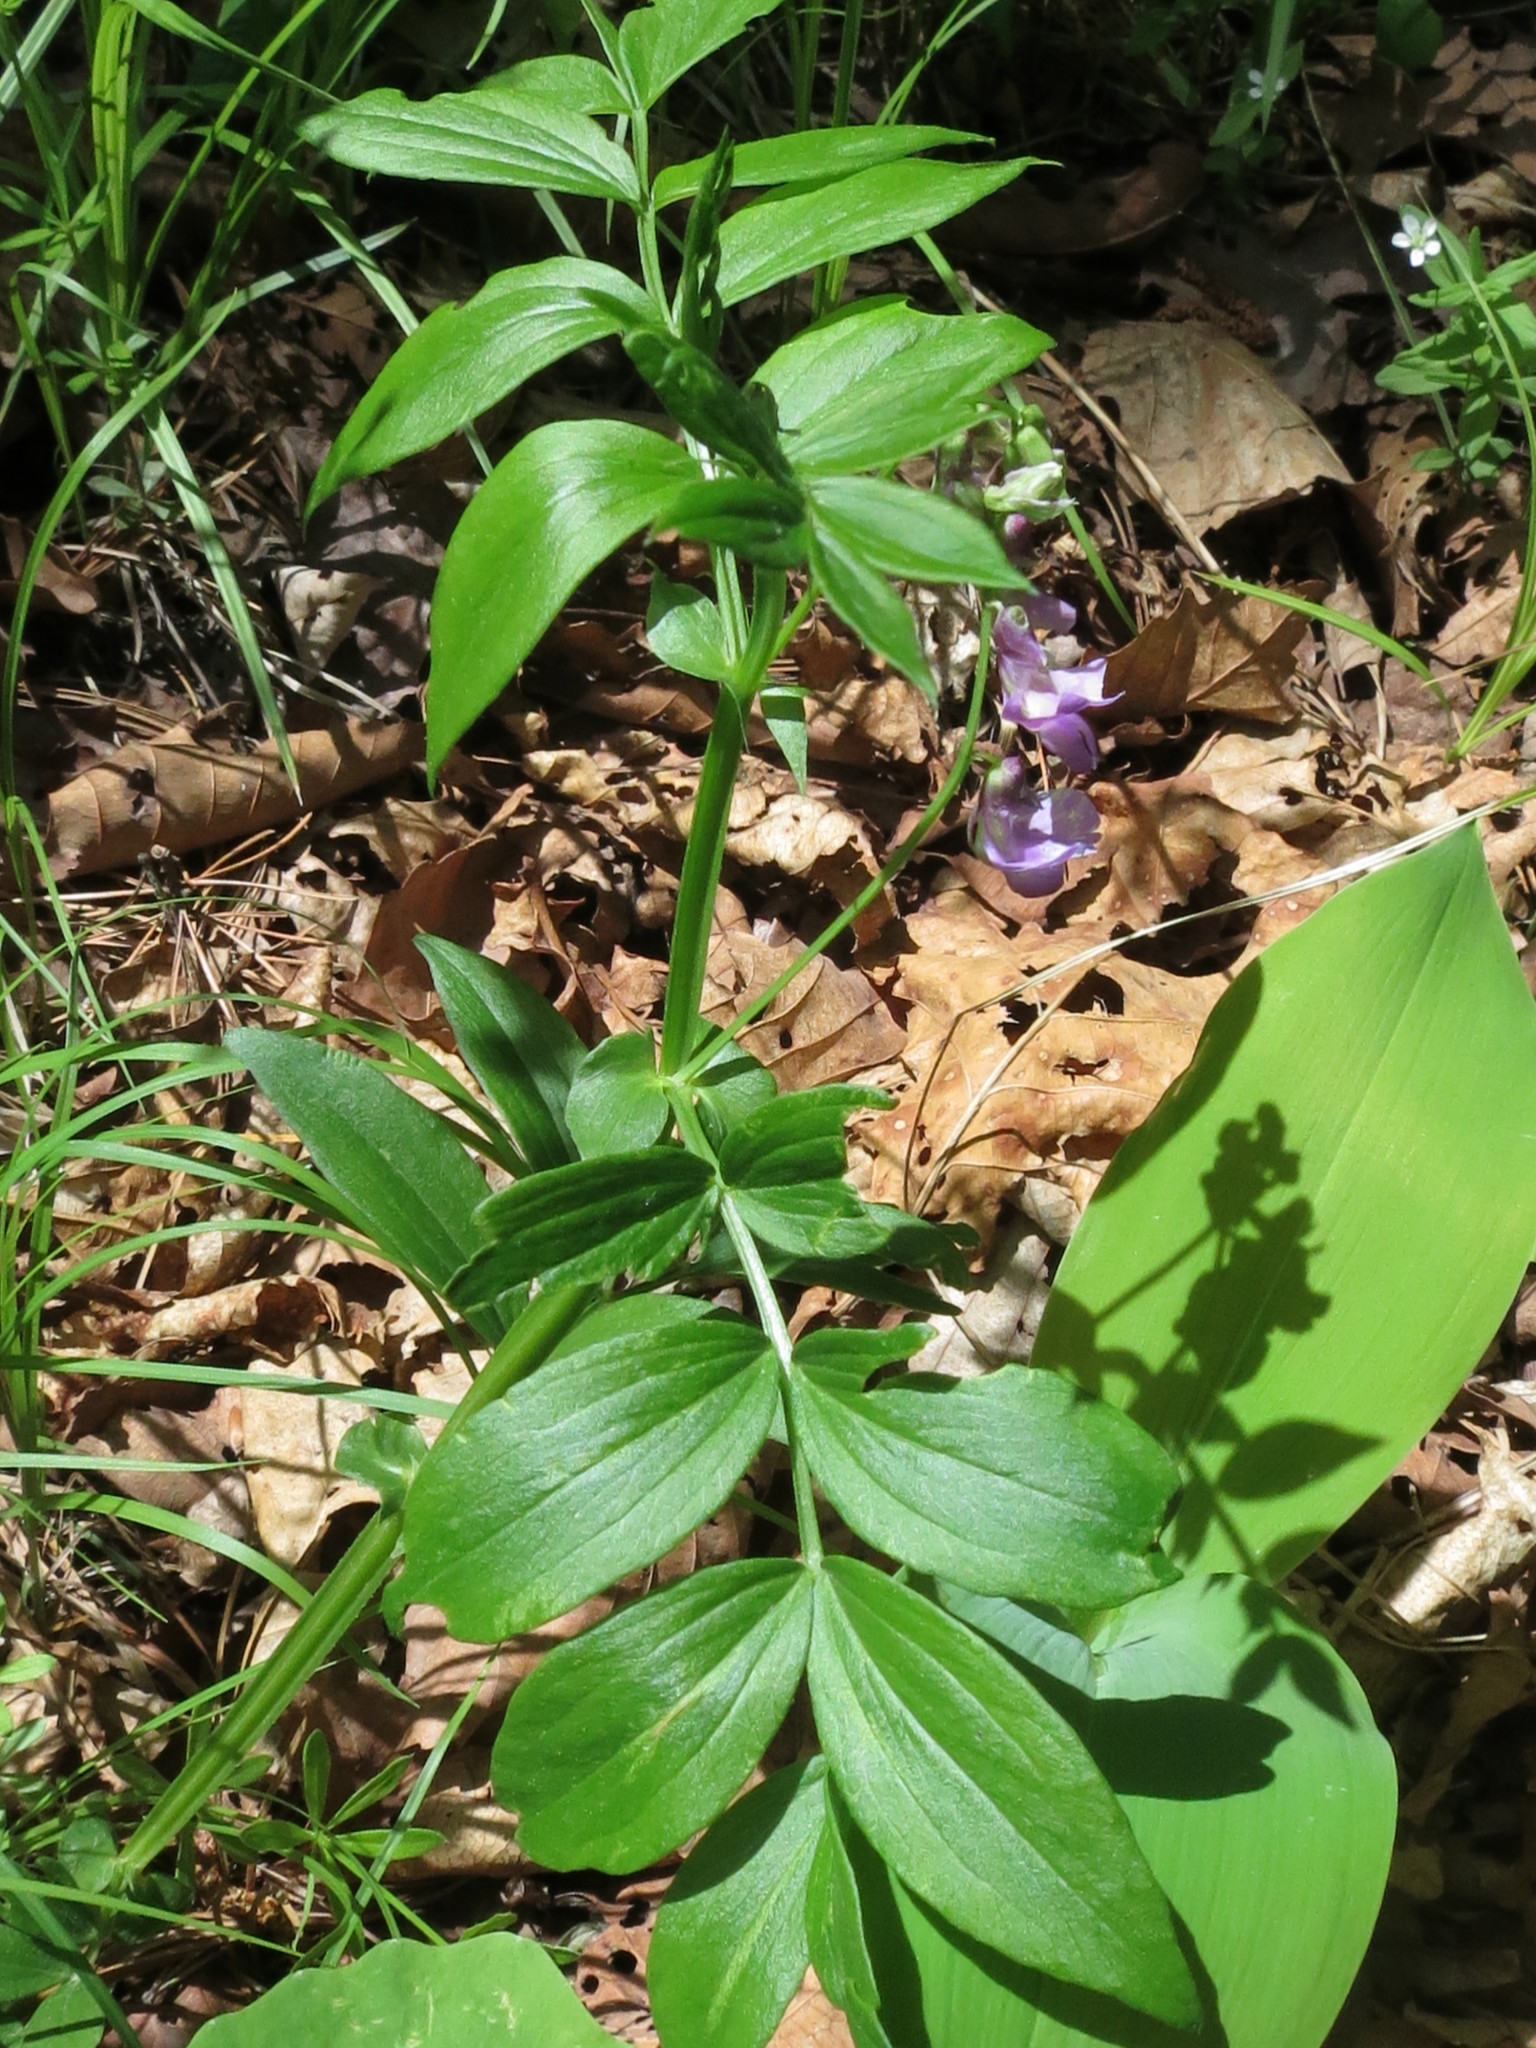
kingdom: Plantae
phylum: Tracheophyta
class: Magnoliopsida
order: Fabales
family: Fabaceae
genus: Lathyrus
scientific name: Lathyrus komarovii
